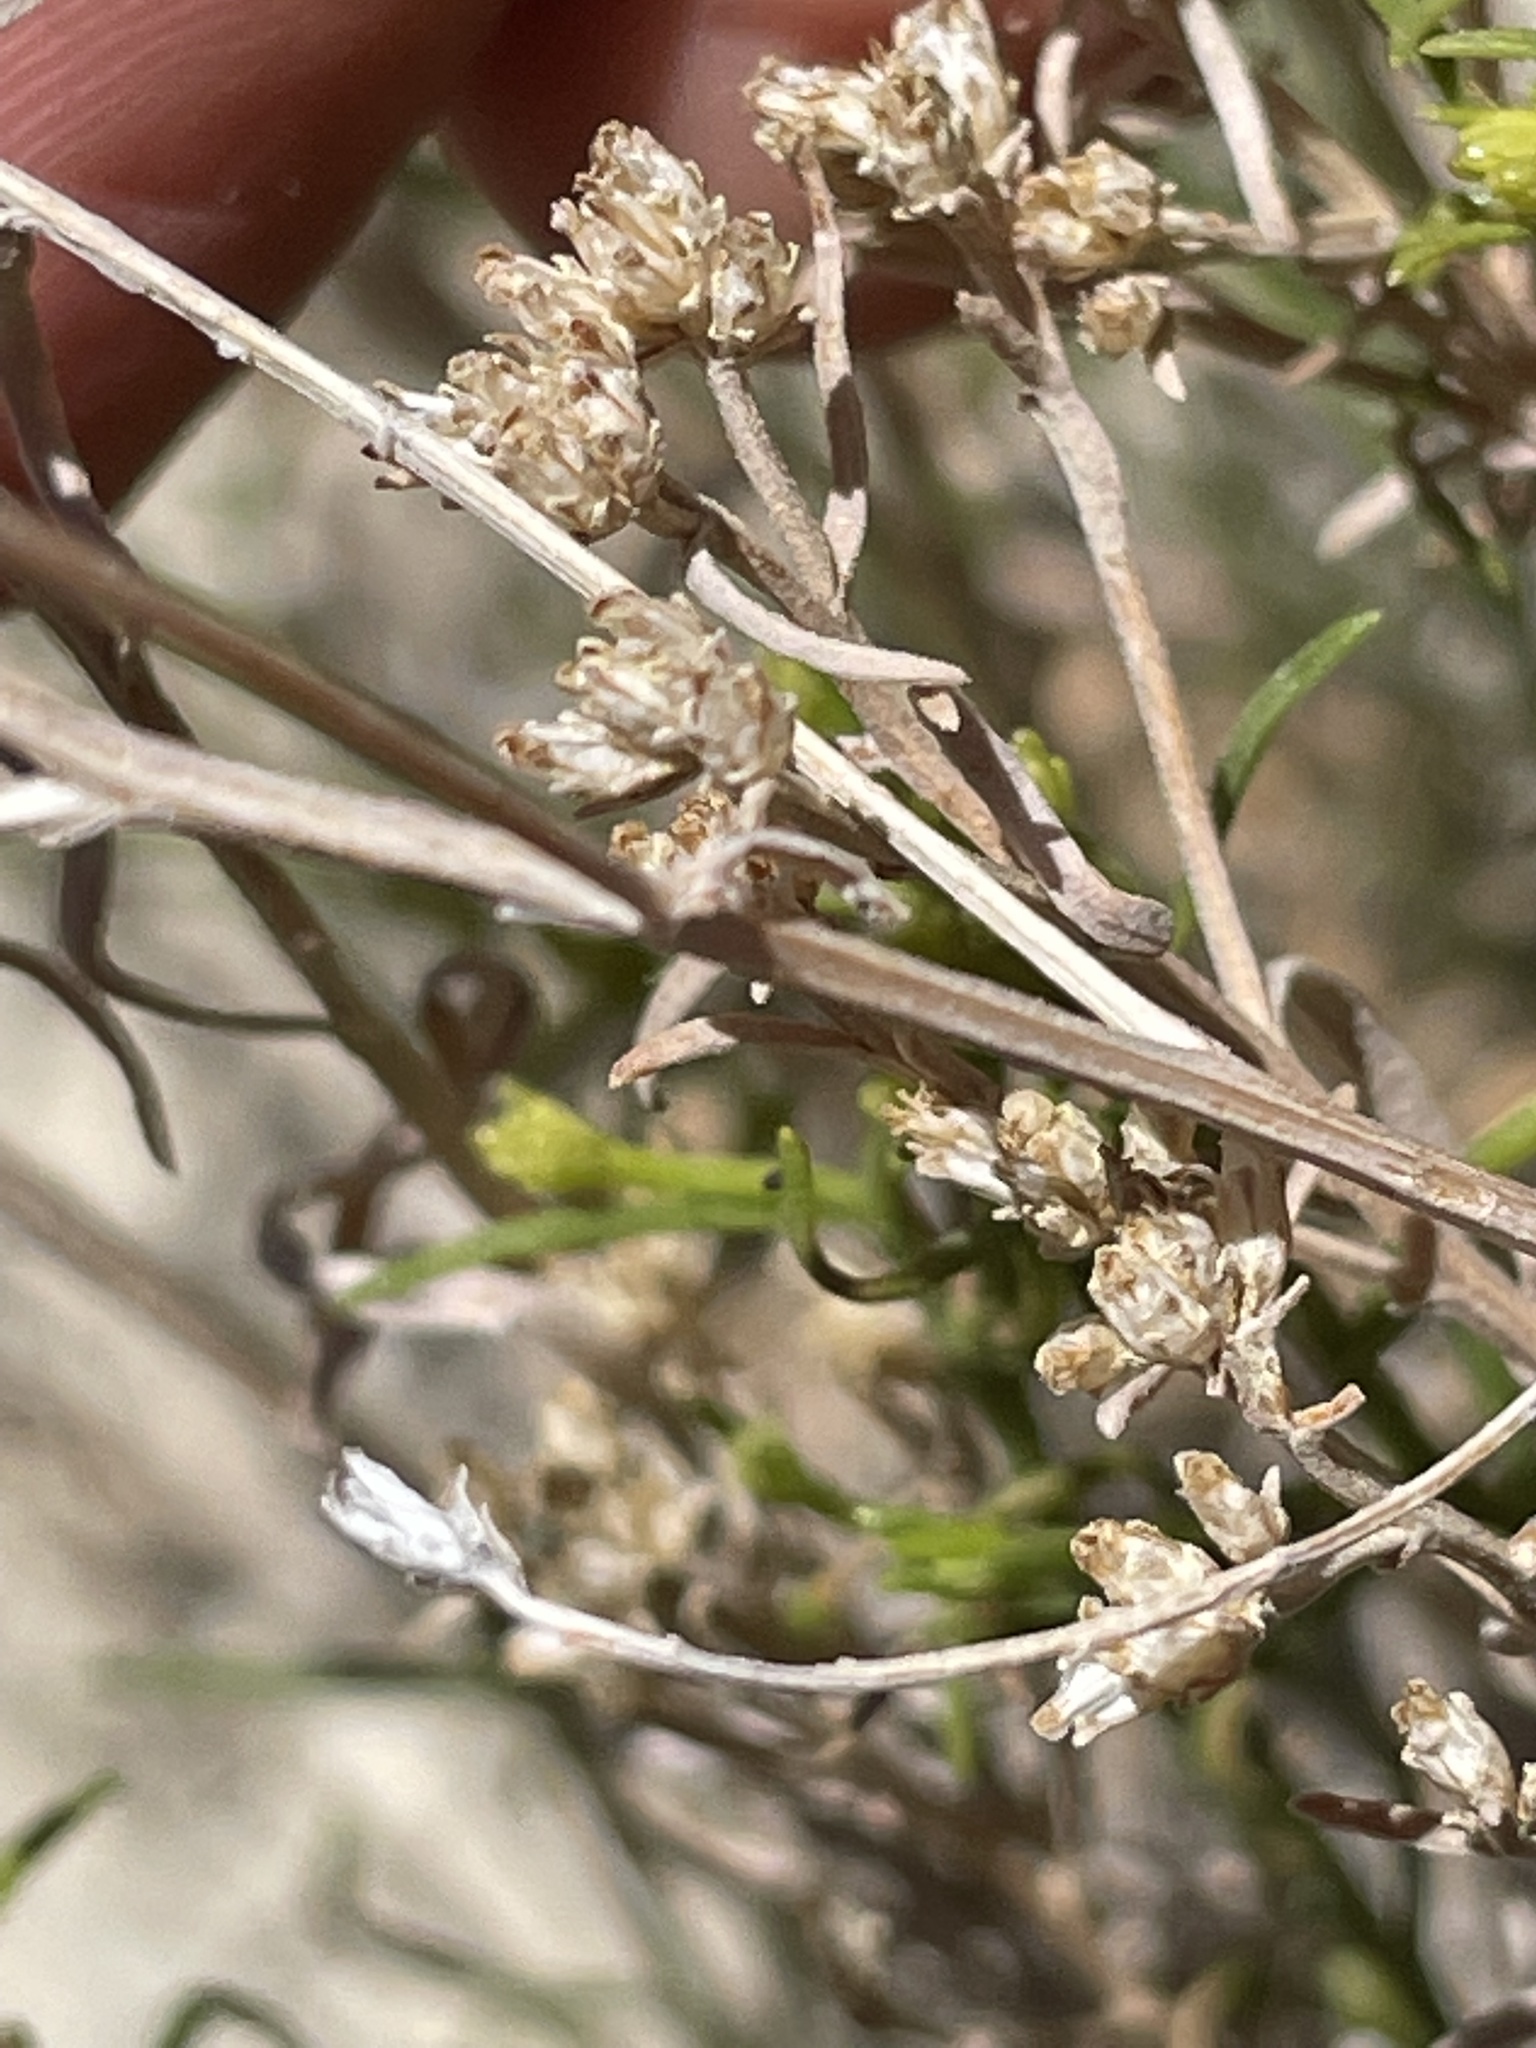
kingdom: Plantae
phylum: Tracheophyta
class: Magnoliopsida
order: Asterales
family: Asteraceae
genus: Gutierrezia
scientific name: Gutierrezia sarothrae
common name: Broom snakeweed
